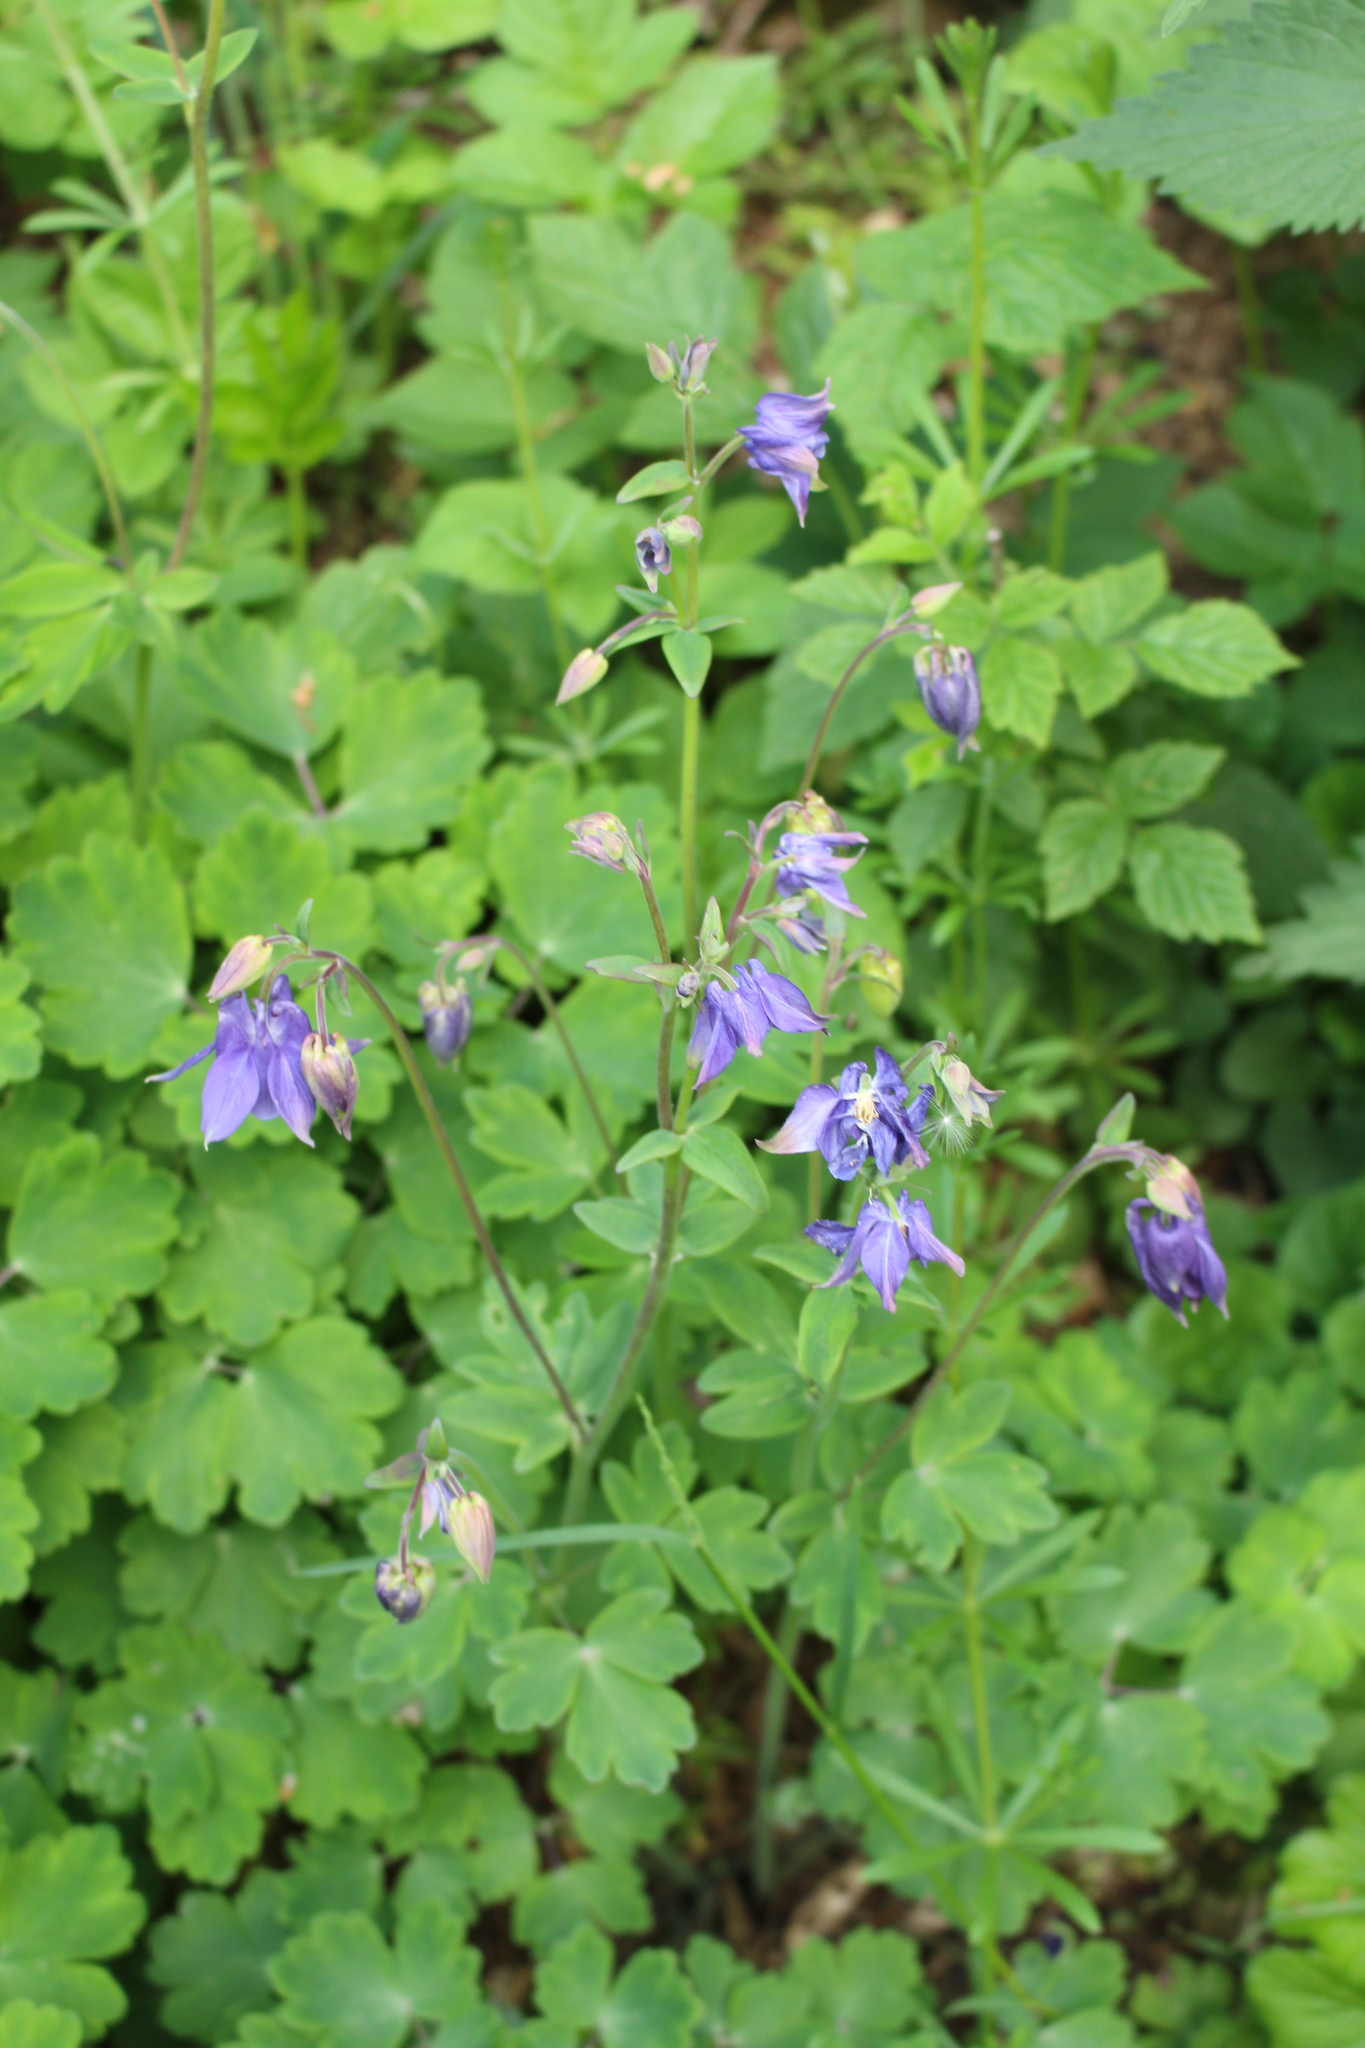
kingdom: Plantae
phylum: Tracheophyta
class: Magnoliopsida
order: Ranunculales
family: Ranunculaceae
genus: Aquilegia
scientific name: Aquilegia vulgaris
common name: Columbine
